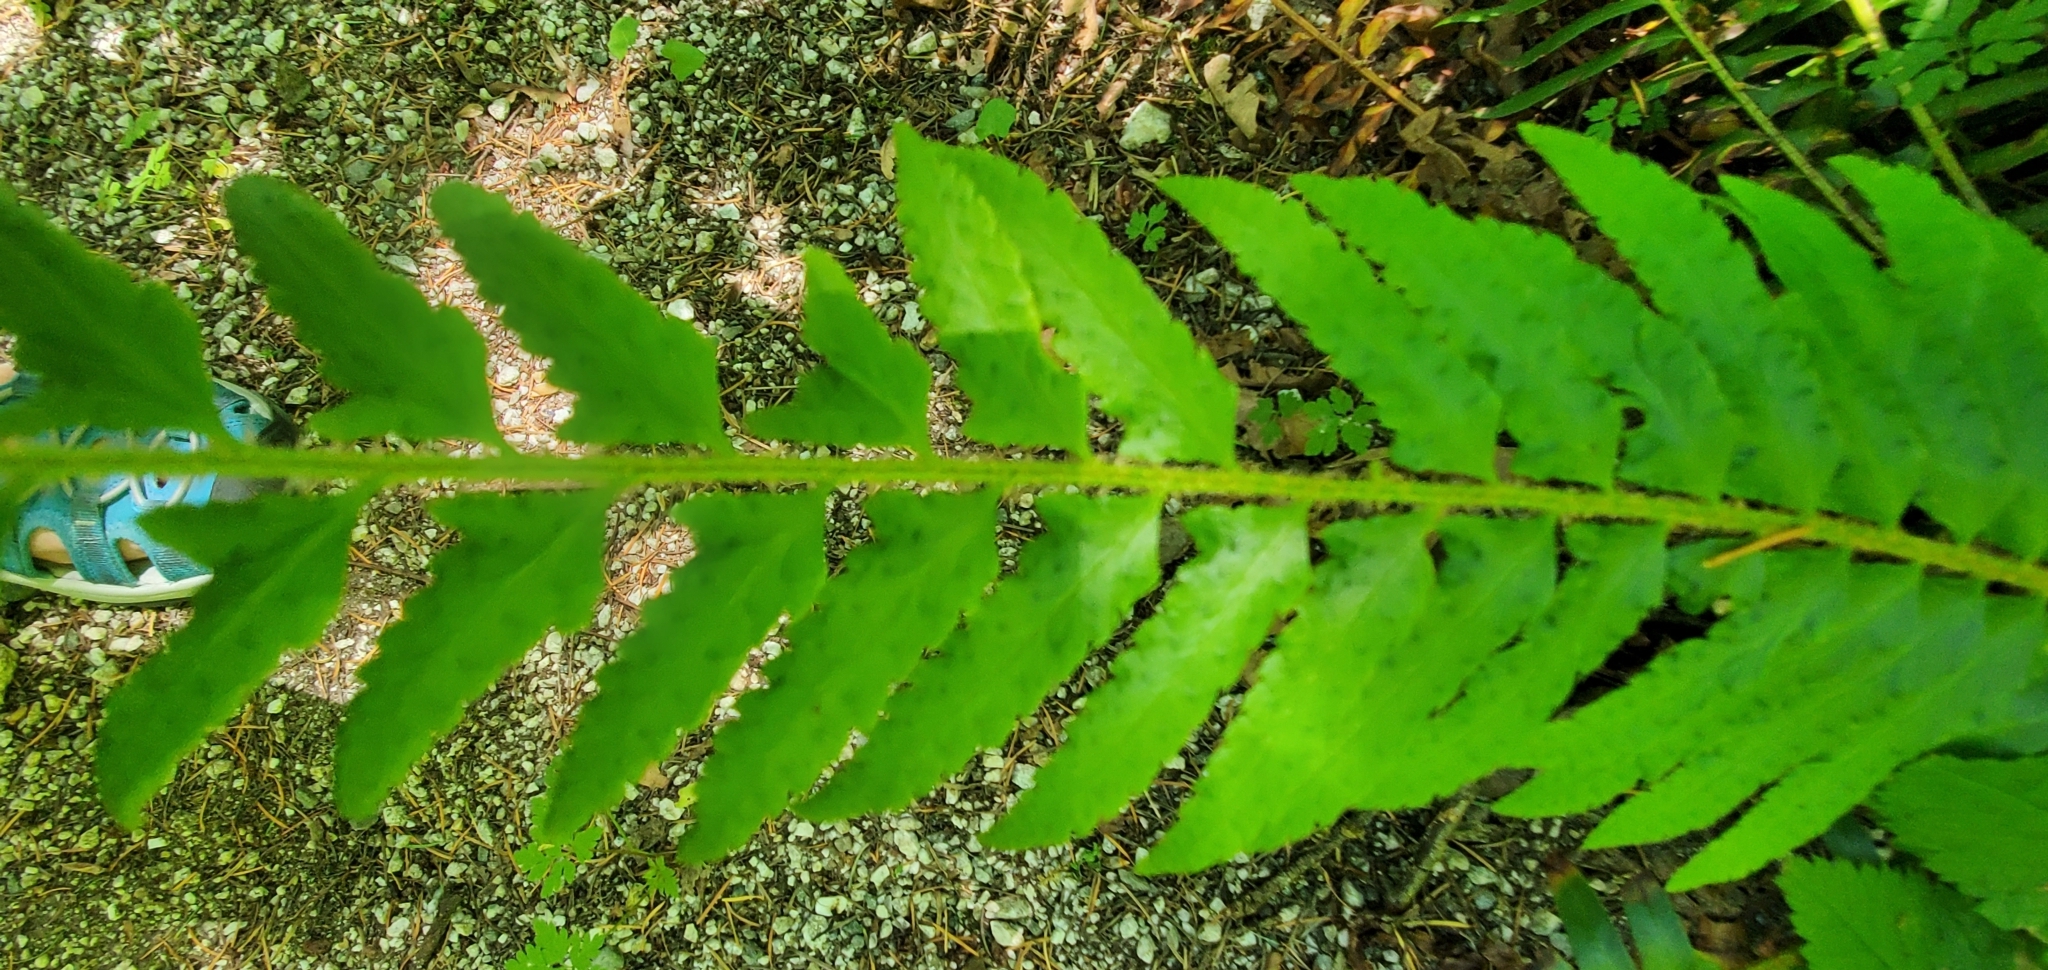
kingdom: Plantae
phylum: Tracheophyta
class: Polypodiopsida
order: Polypodiales
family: Dryopteridaceae
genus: Polystichum
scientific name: Polystichum munitum
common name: Western sword-fern
